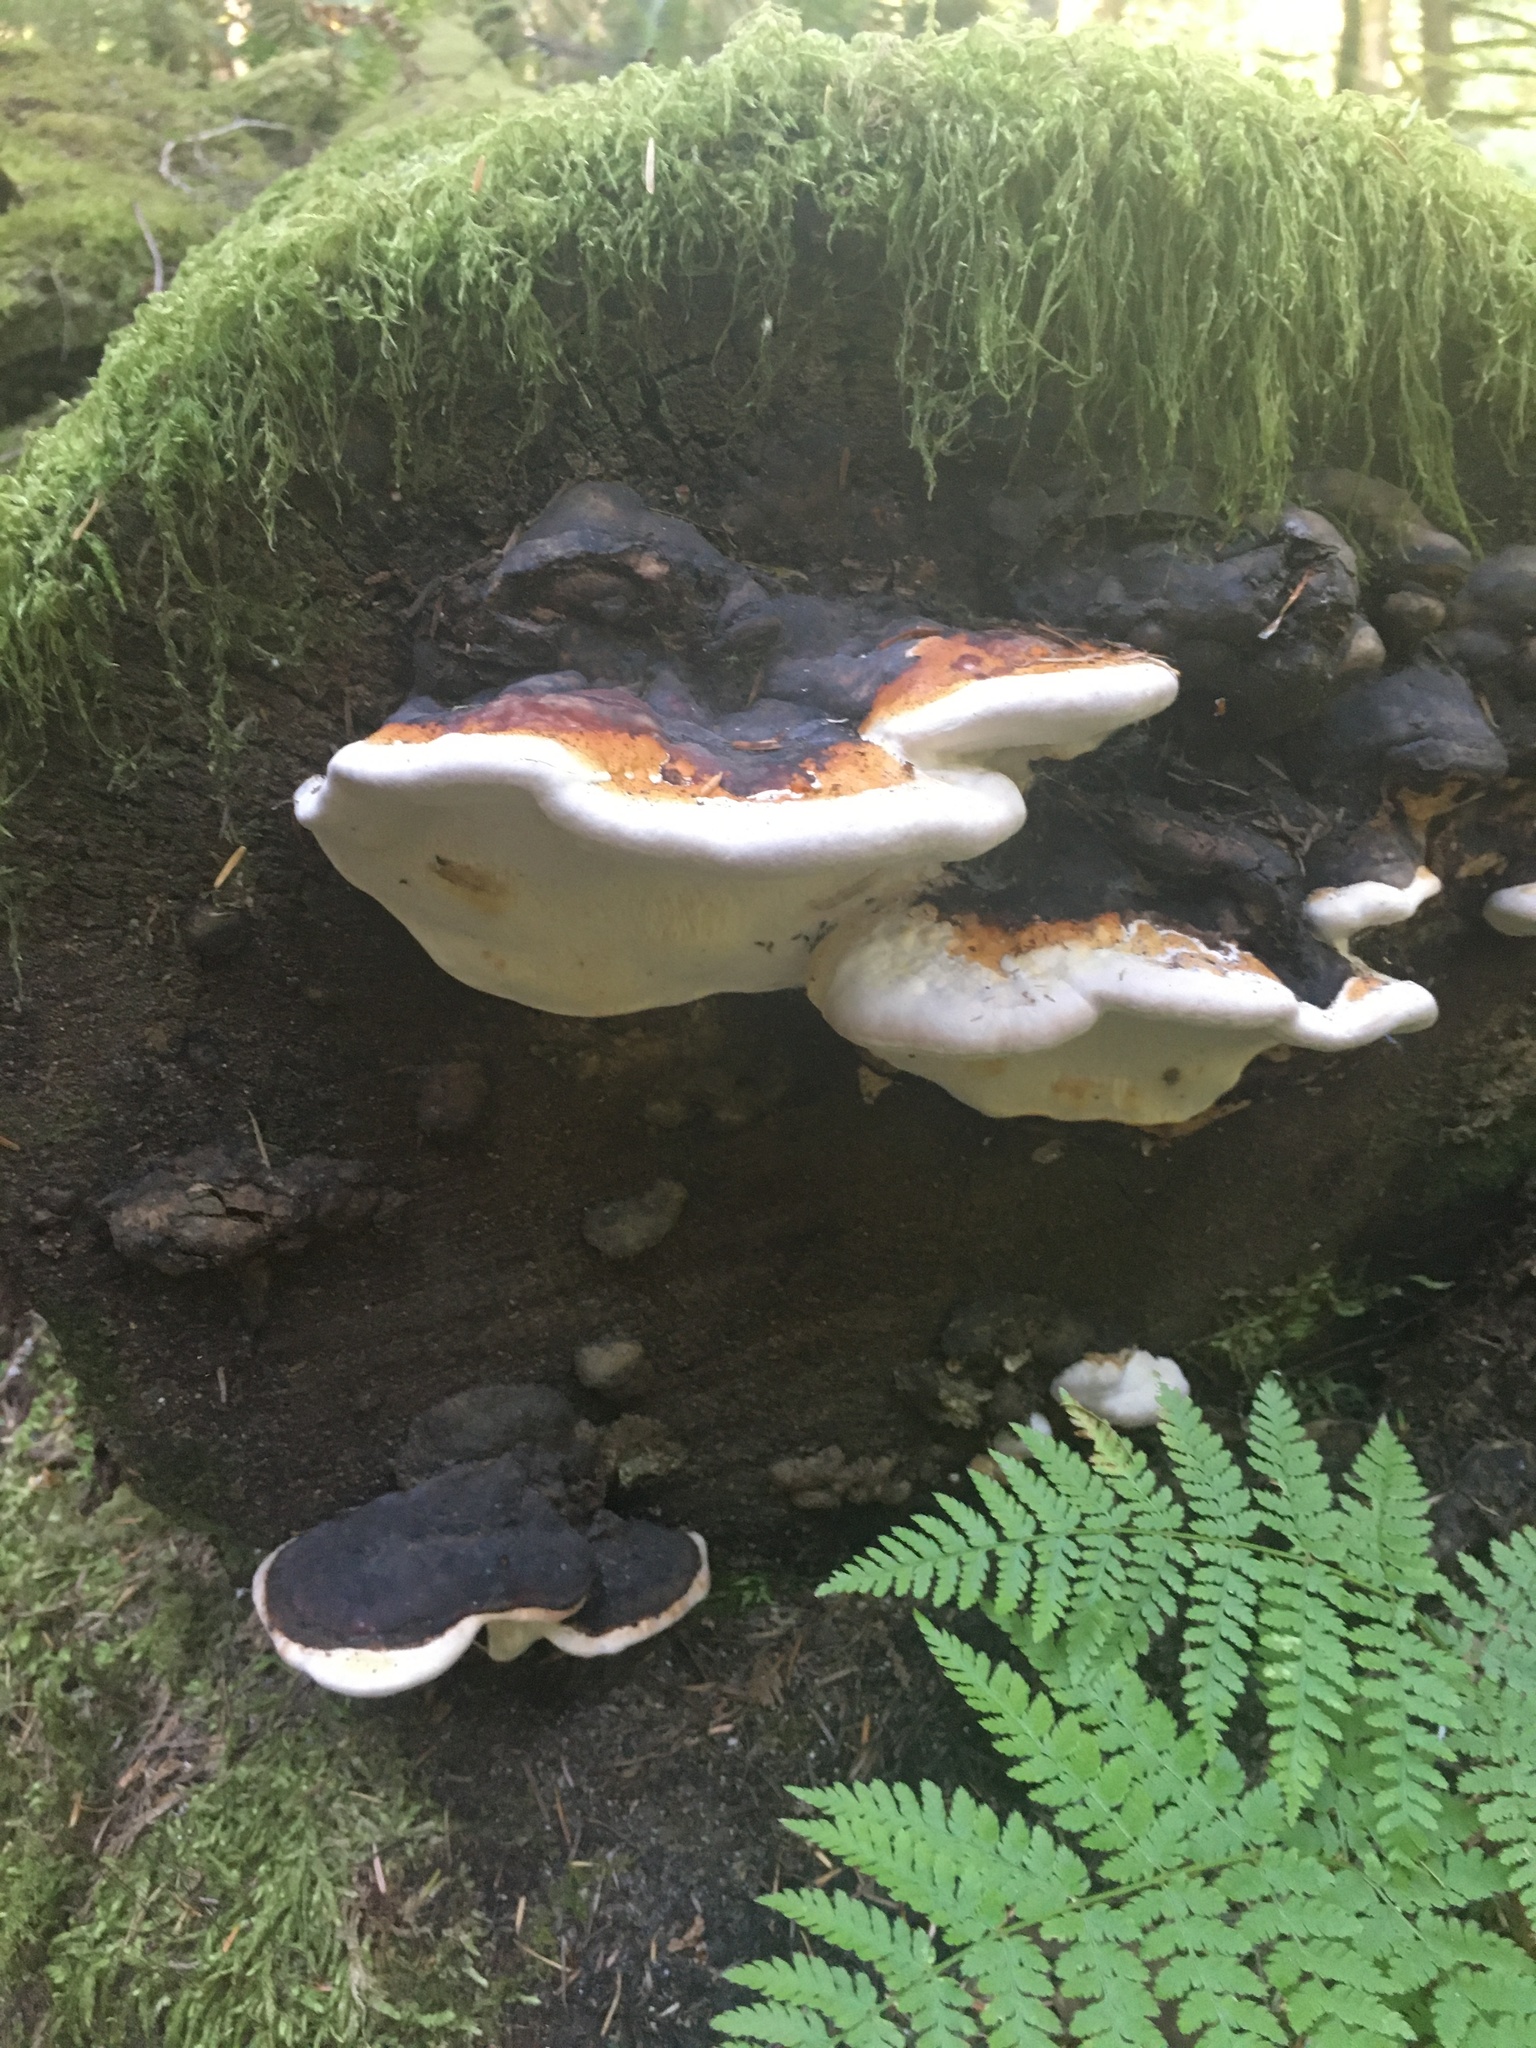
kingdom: Fungi
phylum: Basidiomycota
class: Agaricomycetes
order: Polyporales
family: Fomitopsidaceae
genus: Fomitopsis
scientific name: Fomitopsis mounceae
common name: Northern red belt
